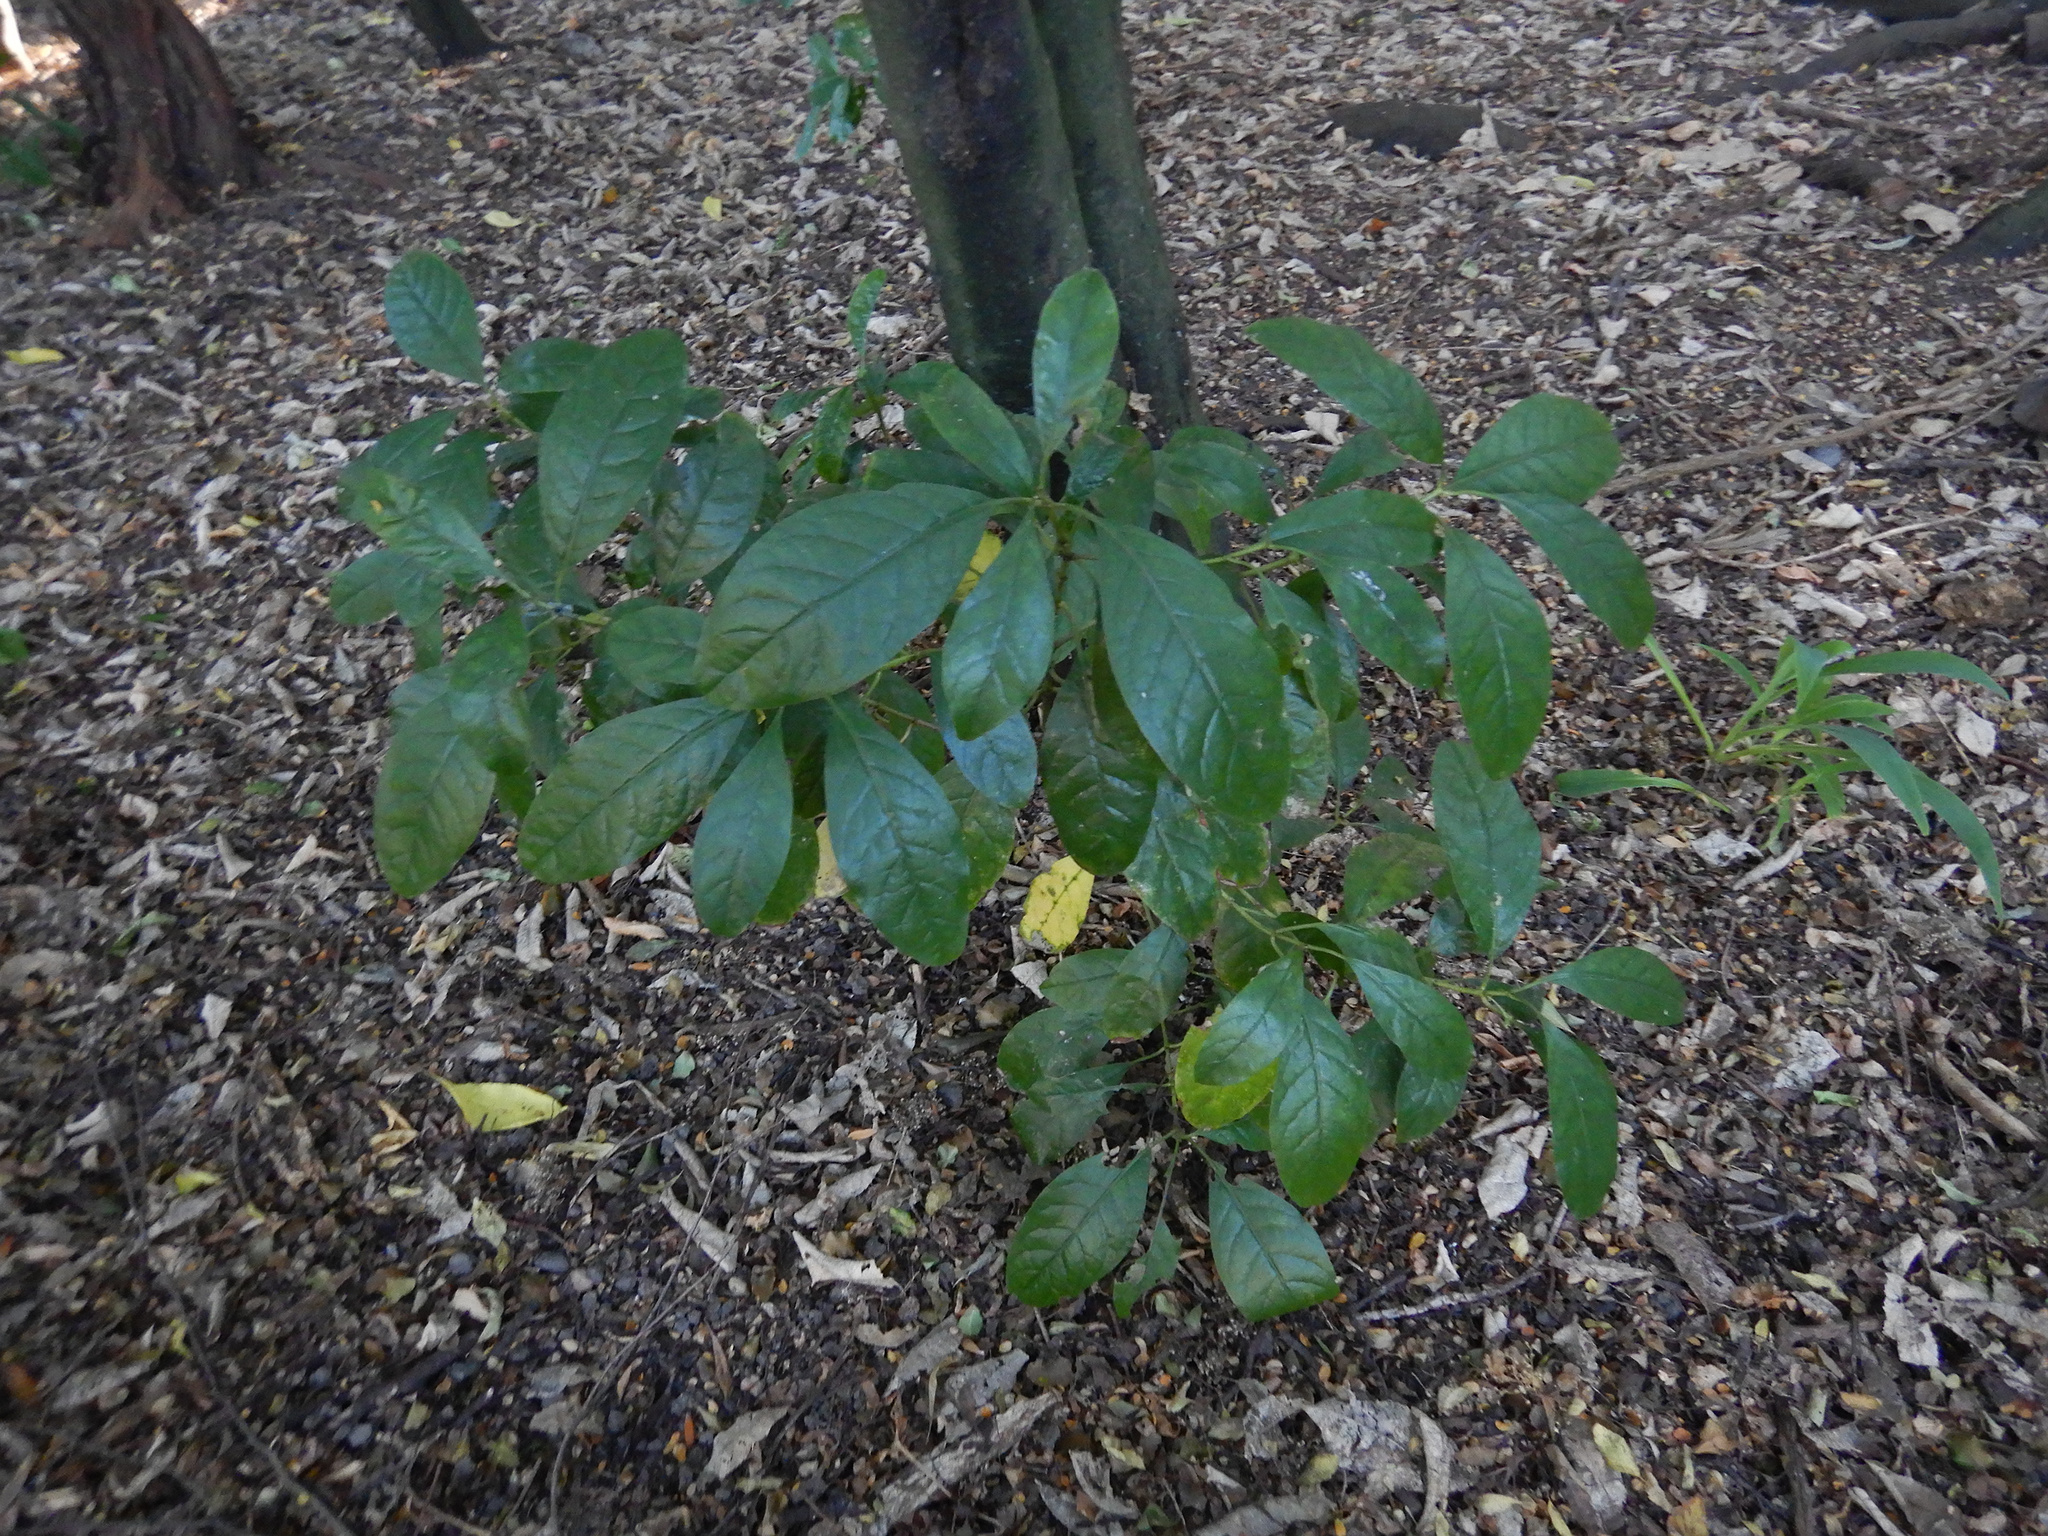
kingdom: Plantae
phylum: Tracheophyta
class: Magnoliopsida
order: Gentianales
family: Rubiaceae
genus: Coprosma
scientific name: Coprosma autumnalis
